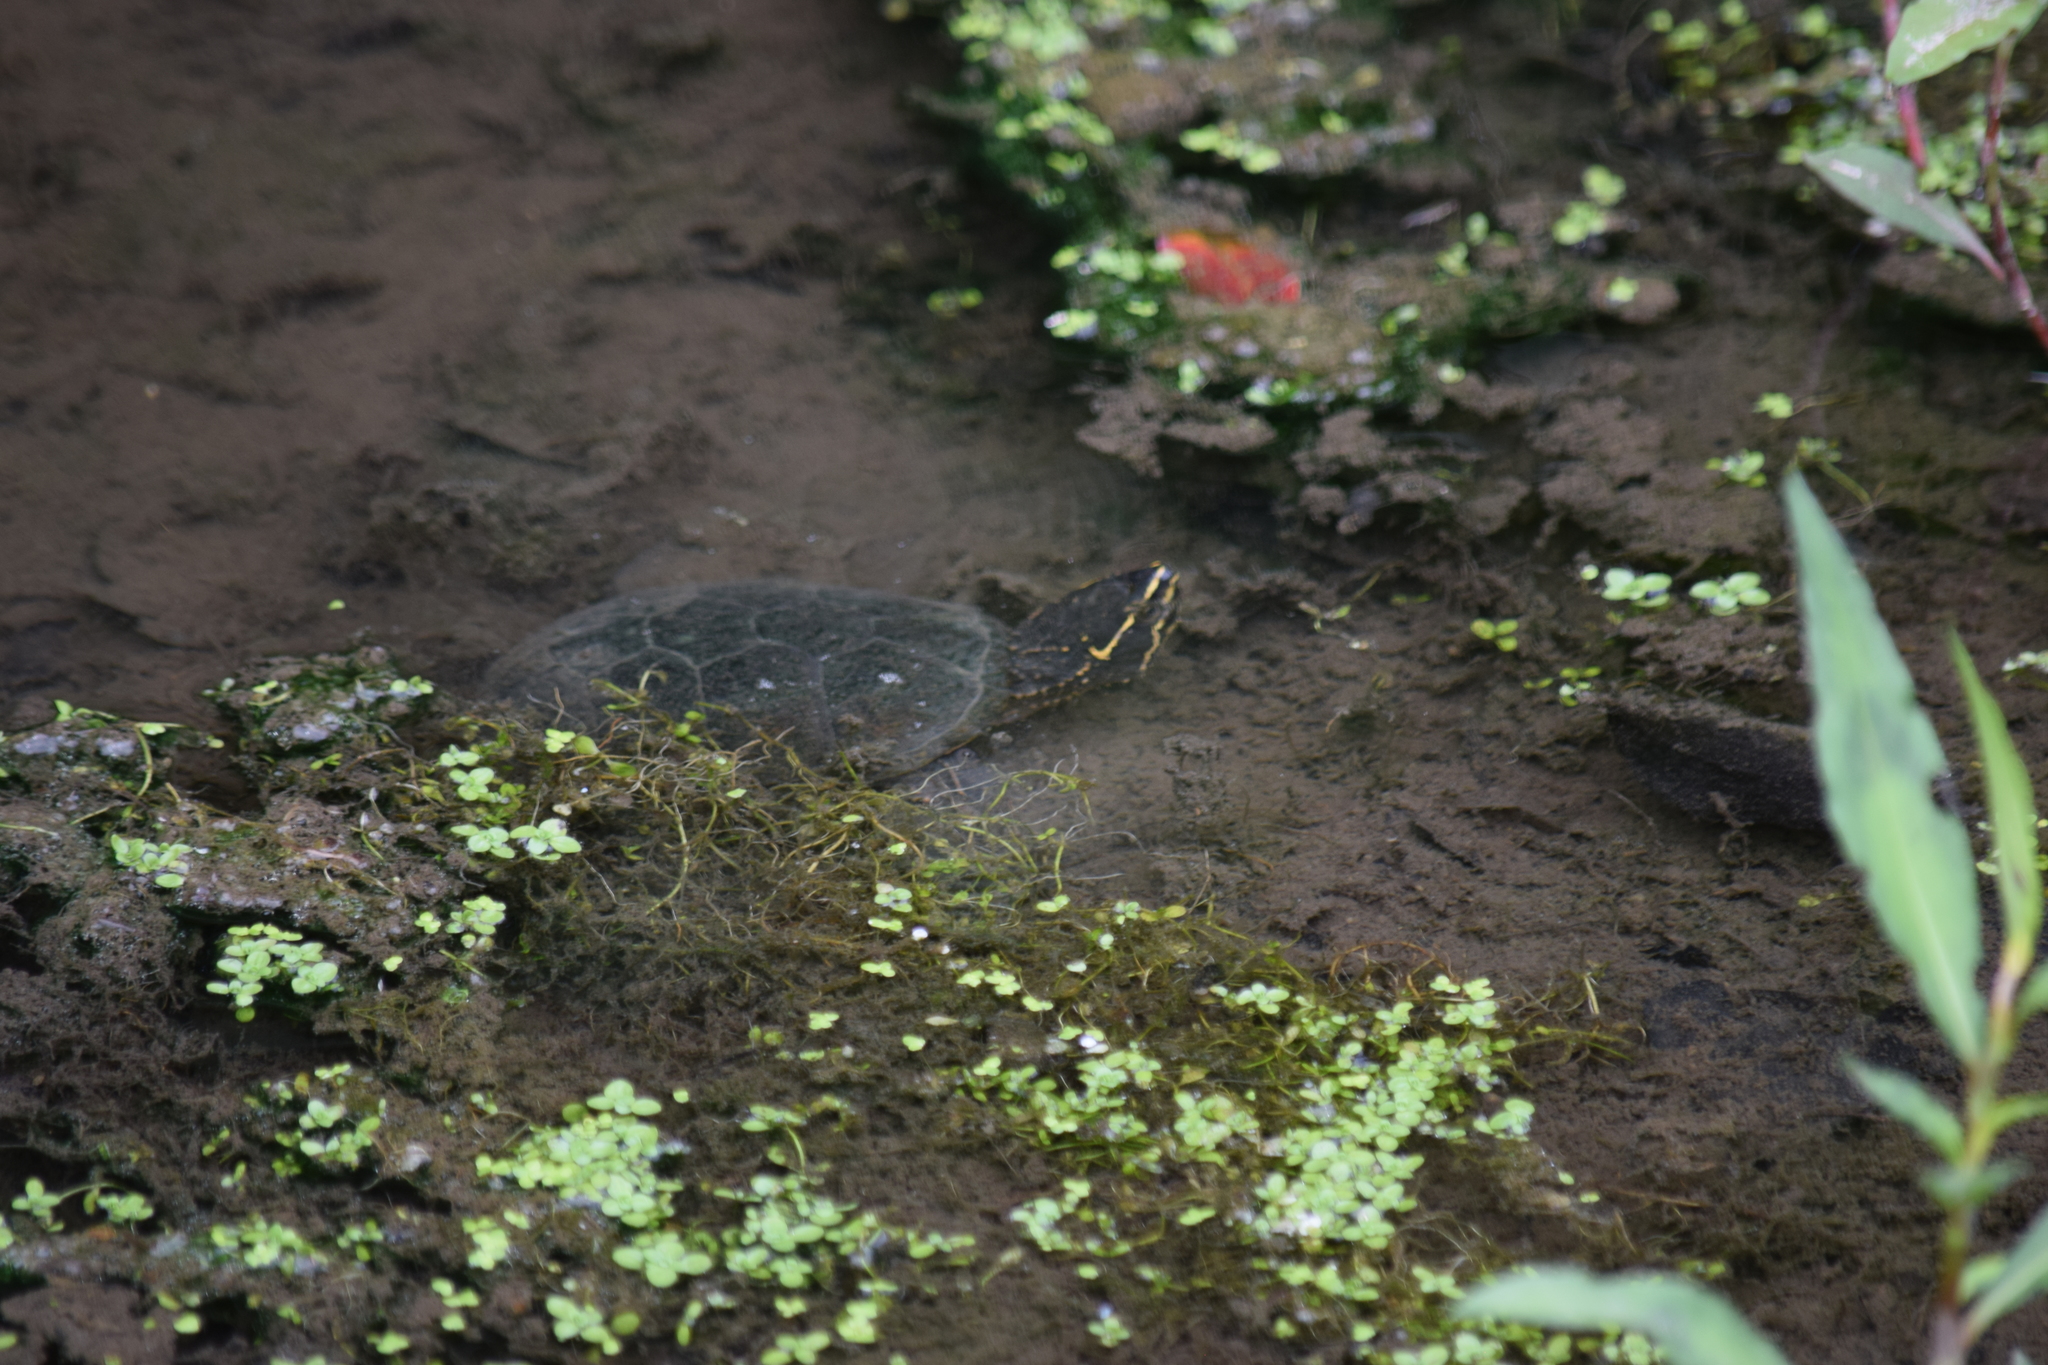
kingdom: Animalia
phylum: Chordata
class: Testudines
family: Kinosternidae
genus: Sternotherus
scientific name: Sternotherus odoratus
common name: Common musk turtle
